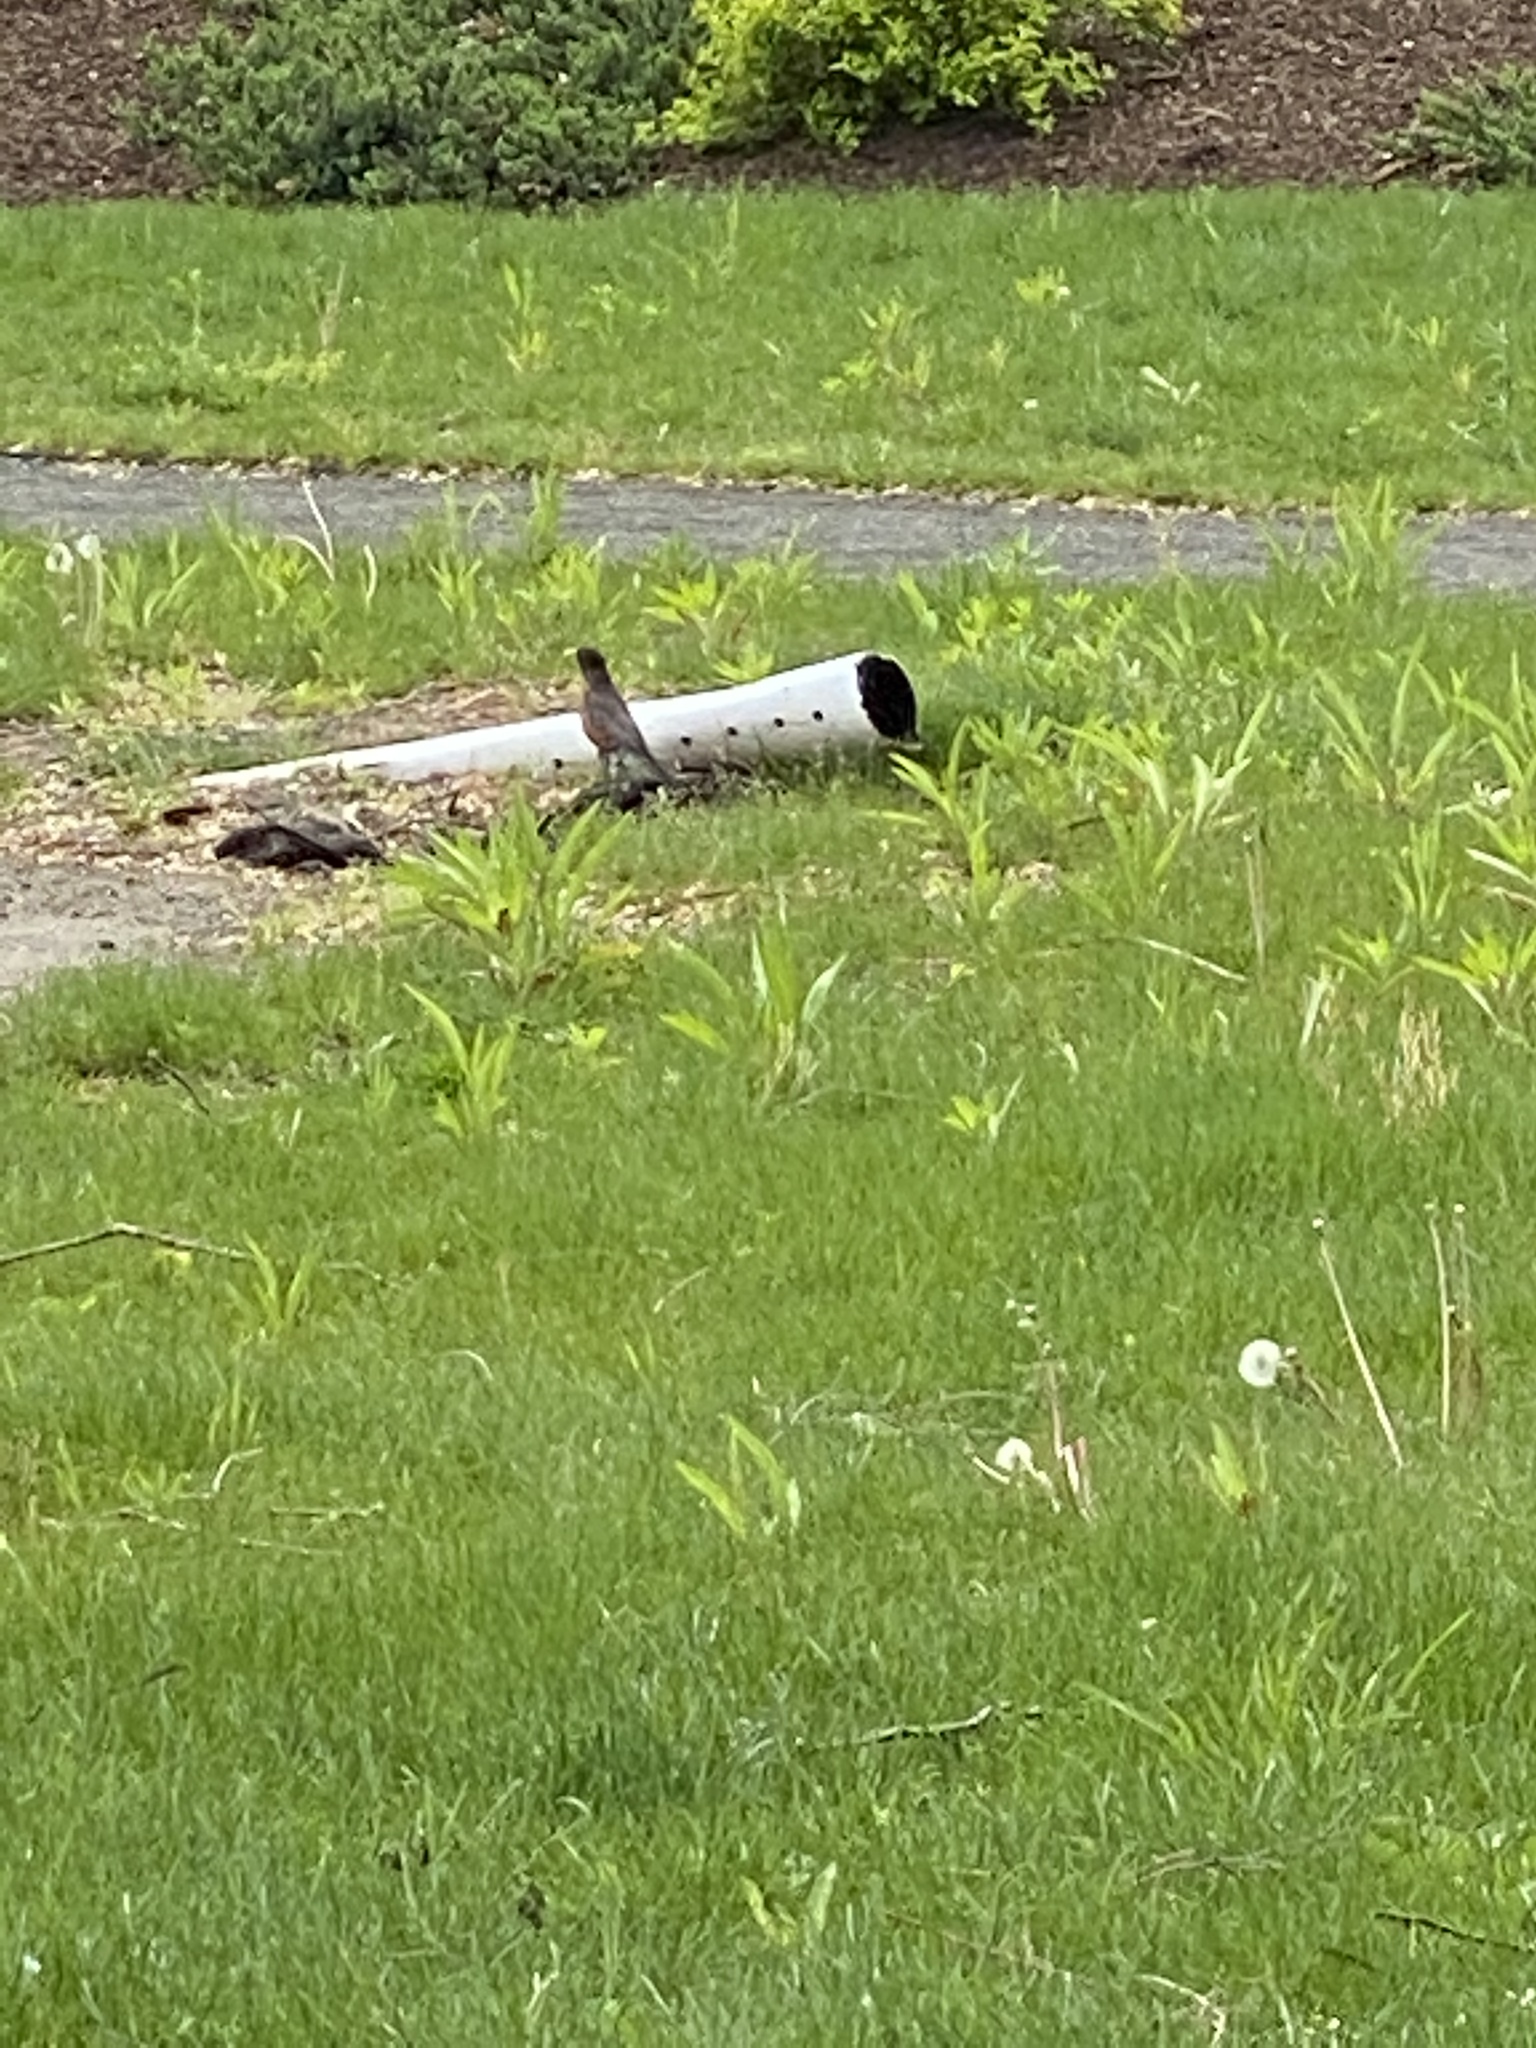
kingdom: Animalia
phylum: Chordata
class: Aves
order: Passeriformes
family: Turdidae
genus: Turdus
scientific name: Turdus migratorius
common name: American robin
